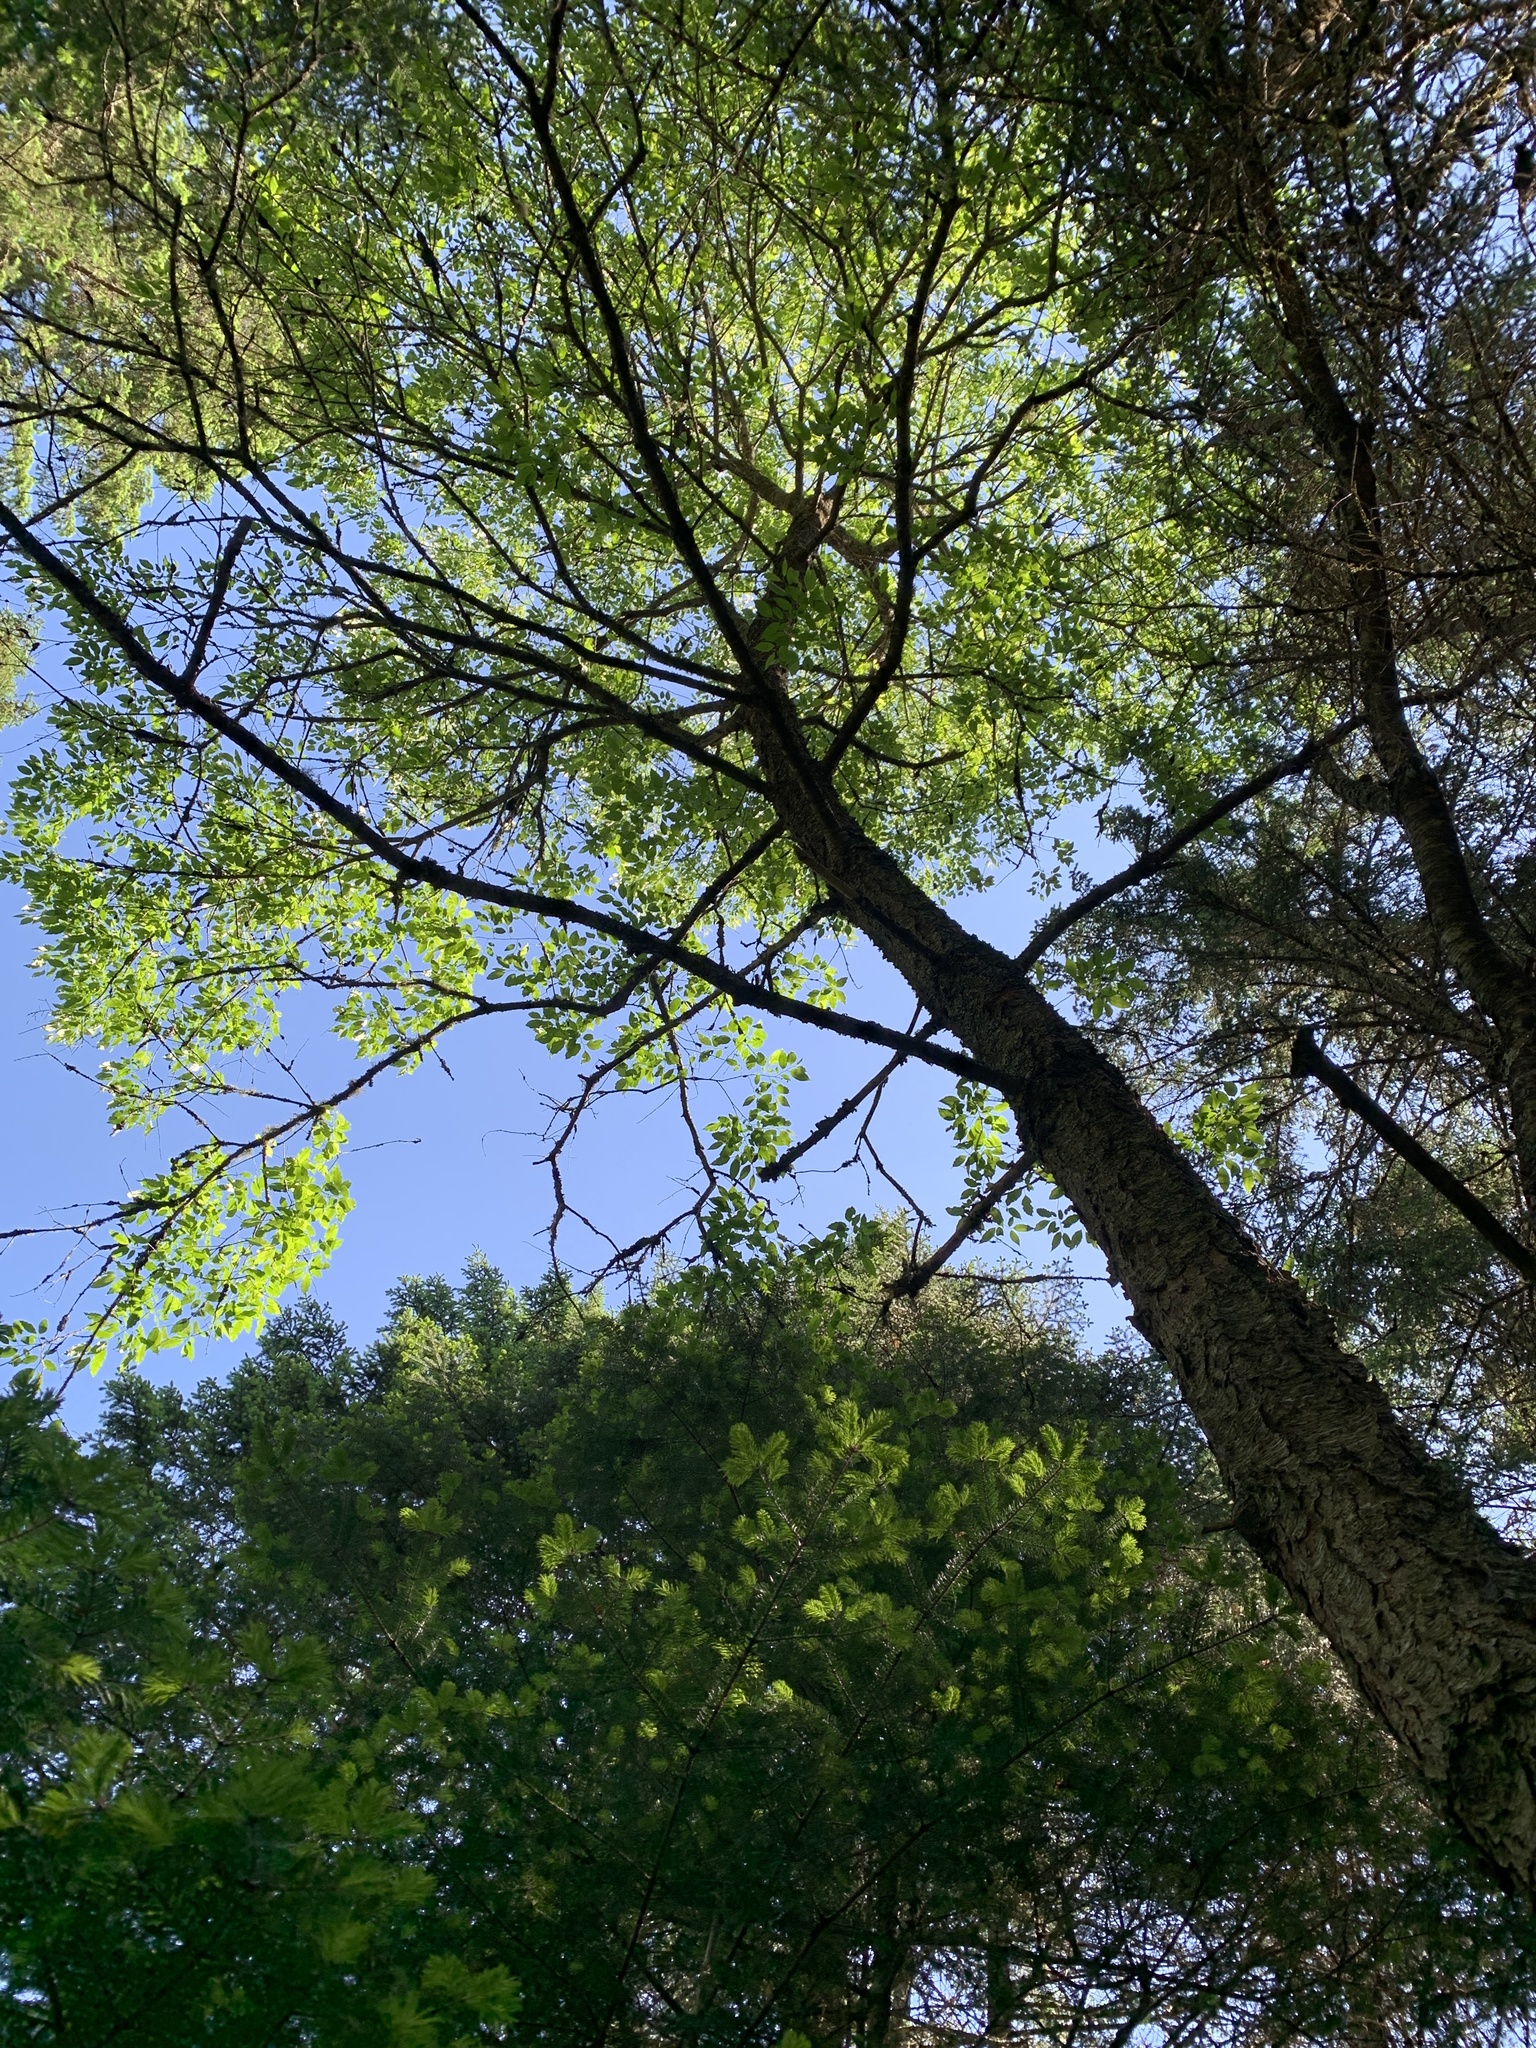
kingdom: Plantae
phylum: Tracheophyta
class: Magnoliopsida
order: Rosales
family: Rosaceae
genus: Prunus
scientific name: Prunus serotina
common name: Black cherry
